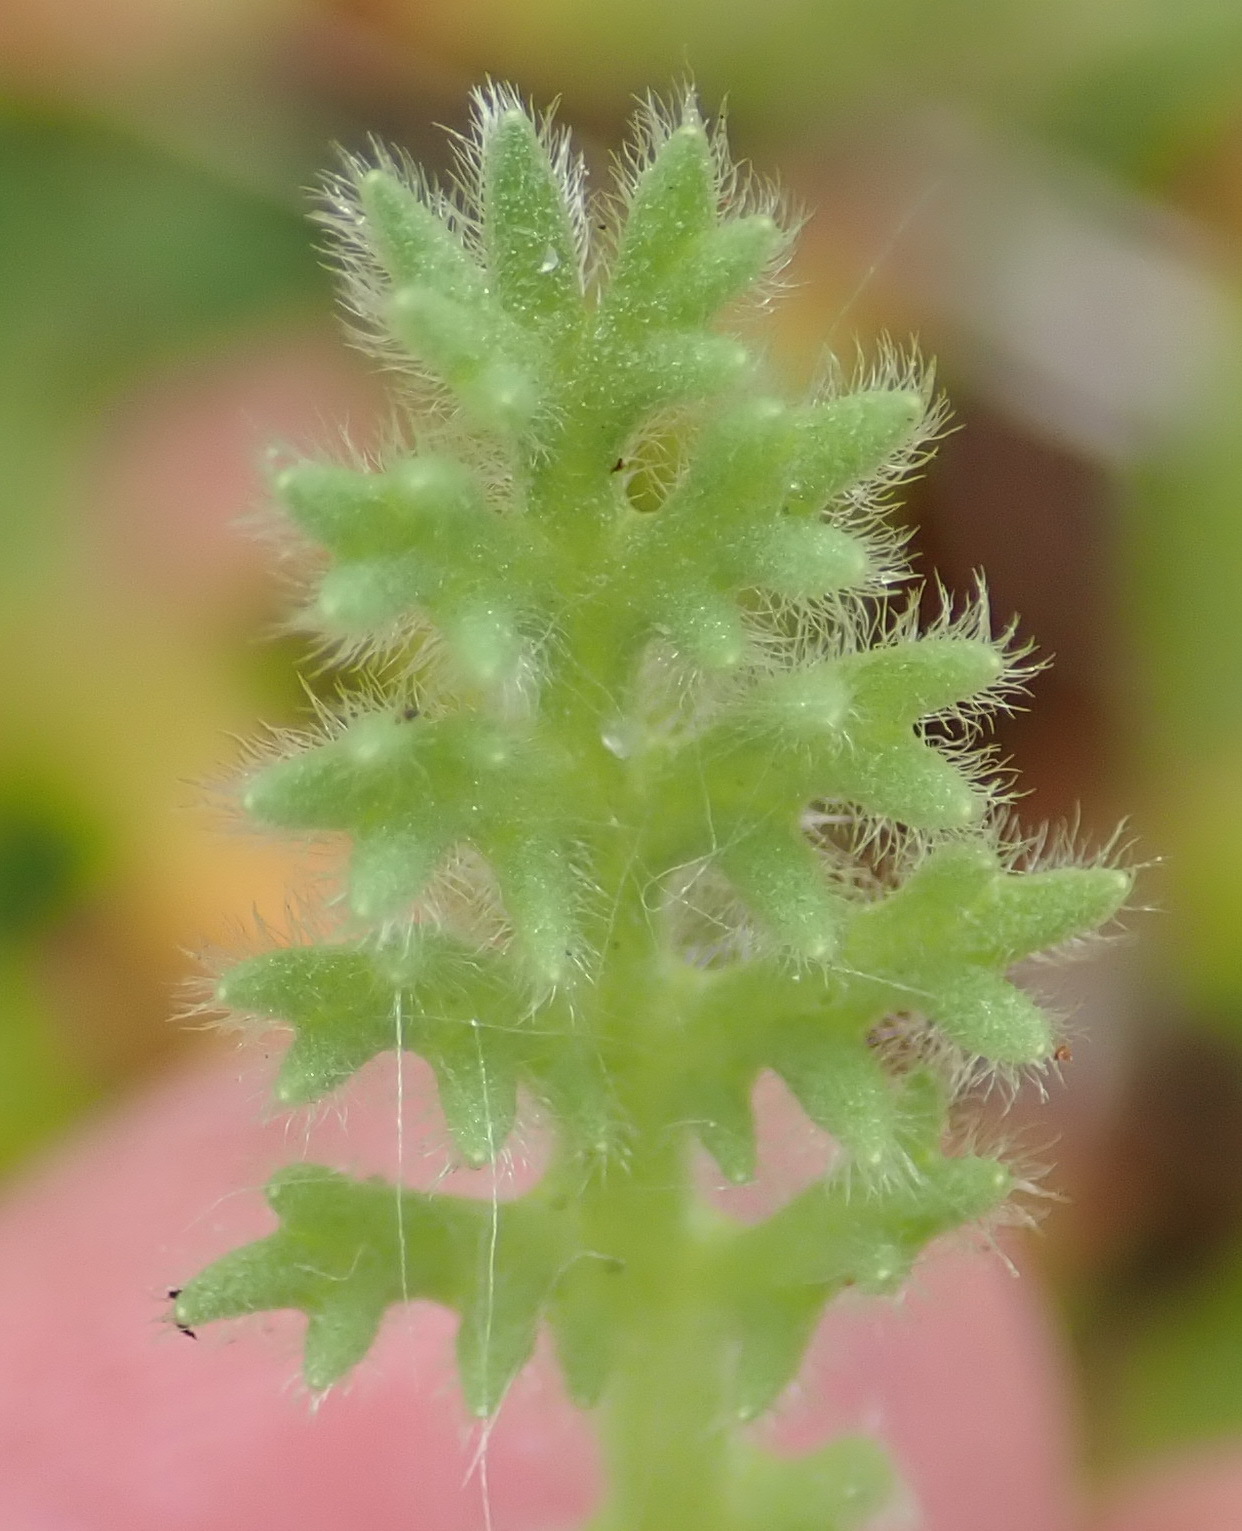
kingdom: Plantae
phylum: Tracheophyta
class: Magnoliopsida
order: Asterales
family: Asteraceae
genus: Cotula
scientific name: Cotula discolor
